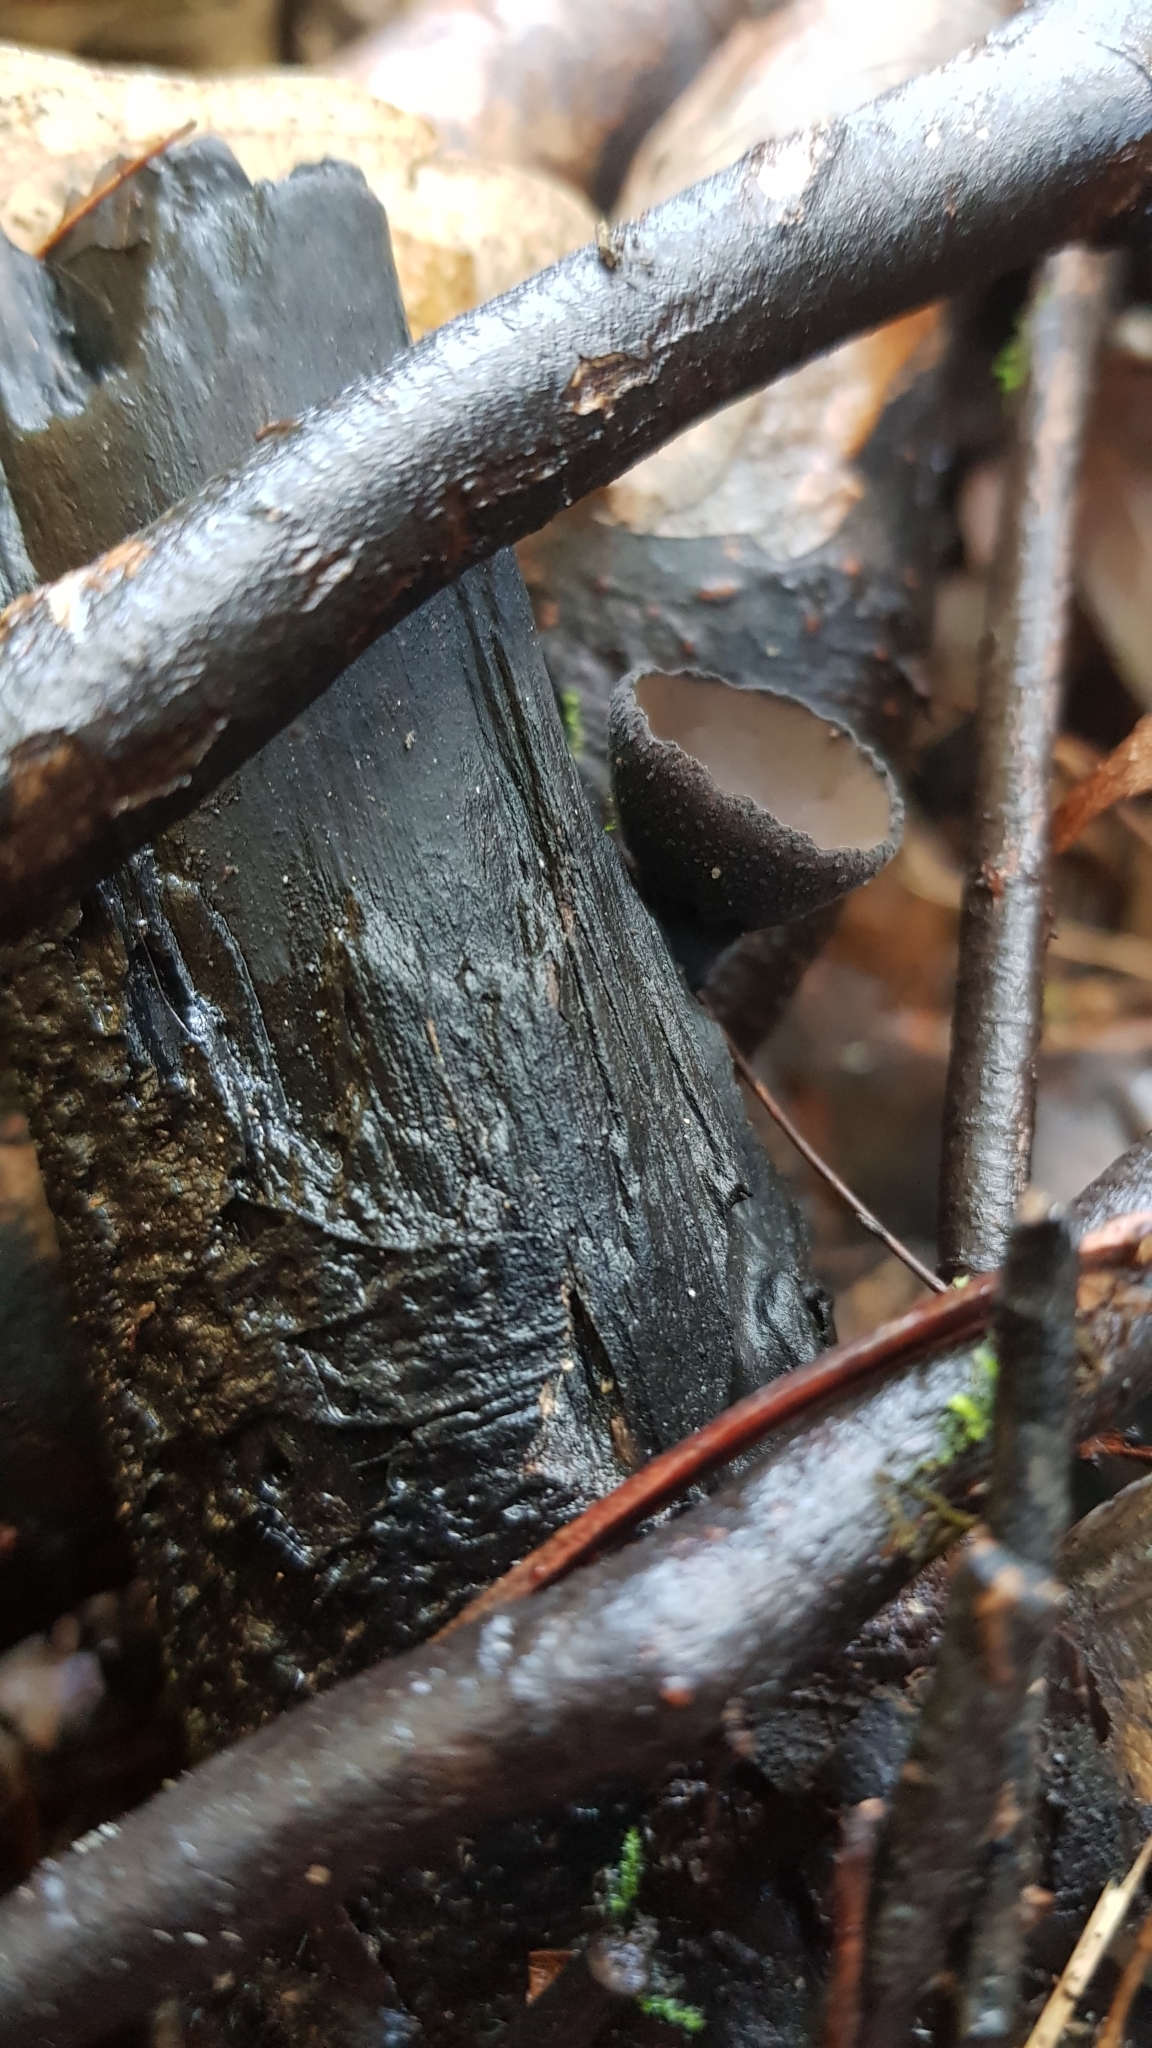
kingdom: Fungi
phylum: Ascomycota
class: Pezizomycetes
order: Pezizales
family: Sarcosomataceae
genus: Plectania
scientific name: Plectania campylospora
